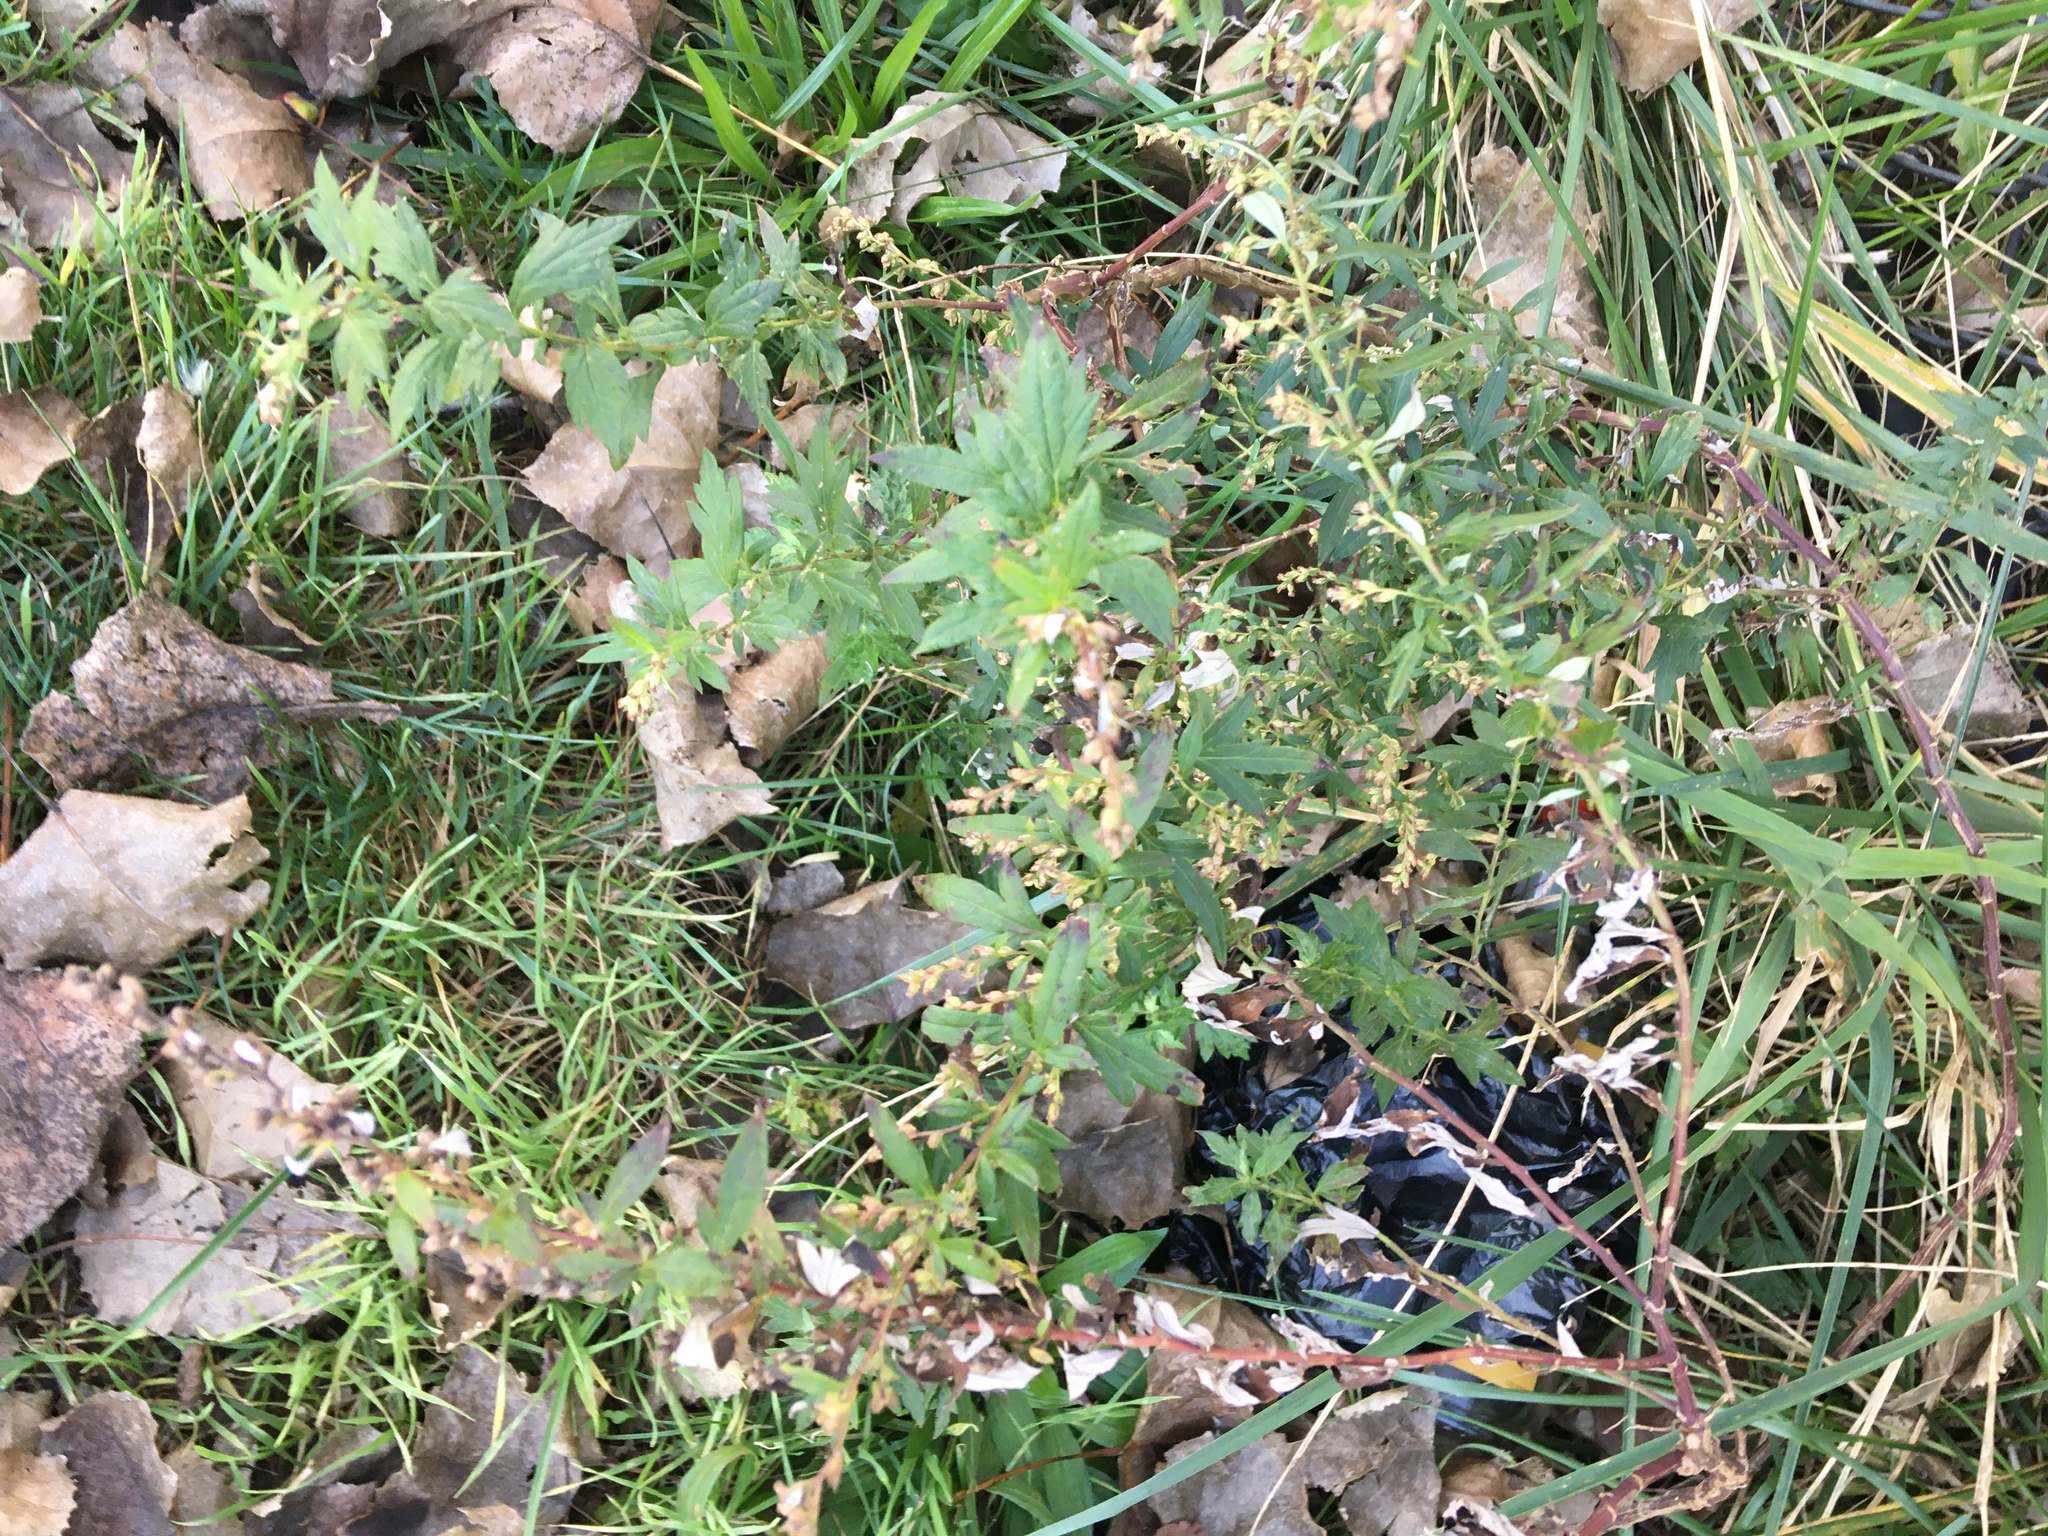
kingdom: Plantae
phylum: Tracheophyta
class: Magnoliopsida
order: Asterales
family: Asteraceae
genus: Artemisia
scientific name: Artemisia vulgaris
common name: Mugwort
